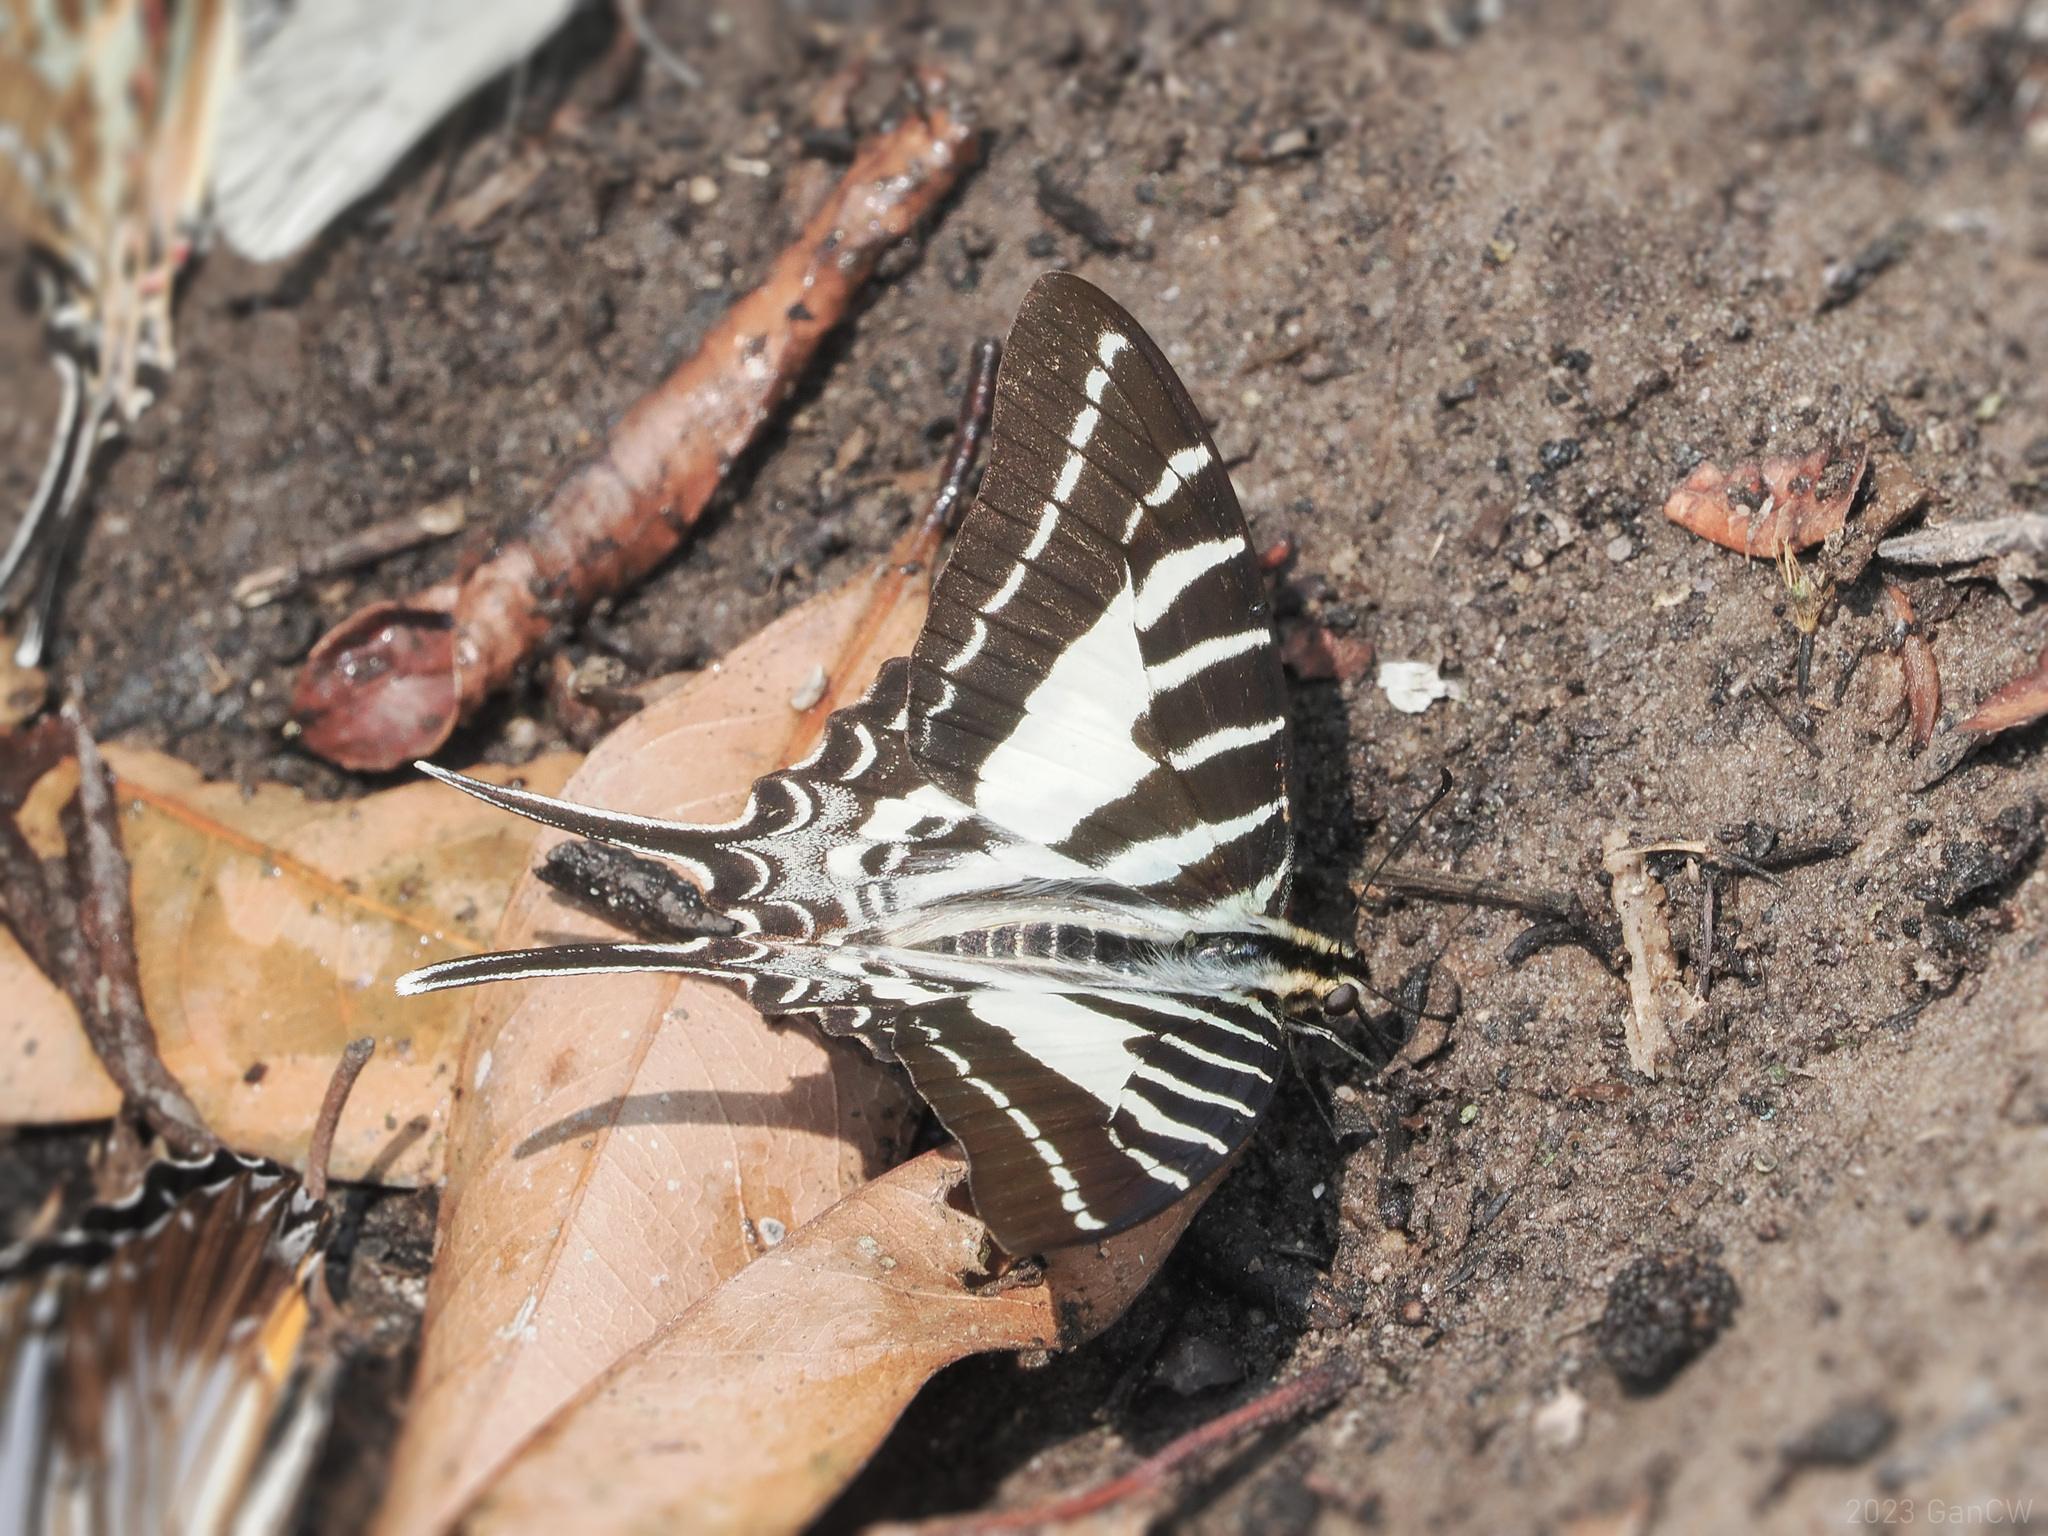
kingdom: Animalia
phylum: Arthropoda
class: Insecta
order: Lepidoptera
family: Papilionidae
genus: Graphium
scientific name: Graphium aristeus
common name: Chain swordtail
